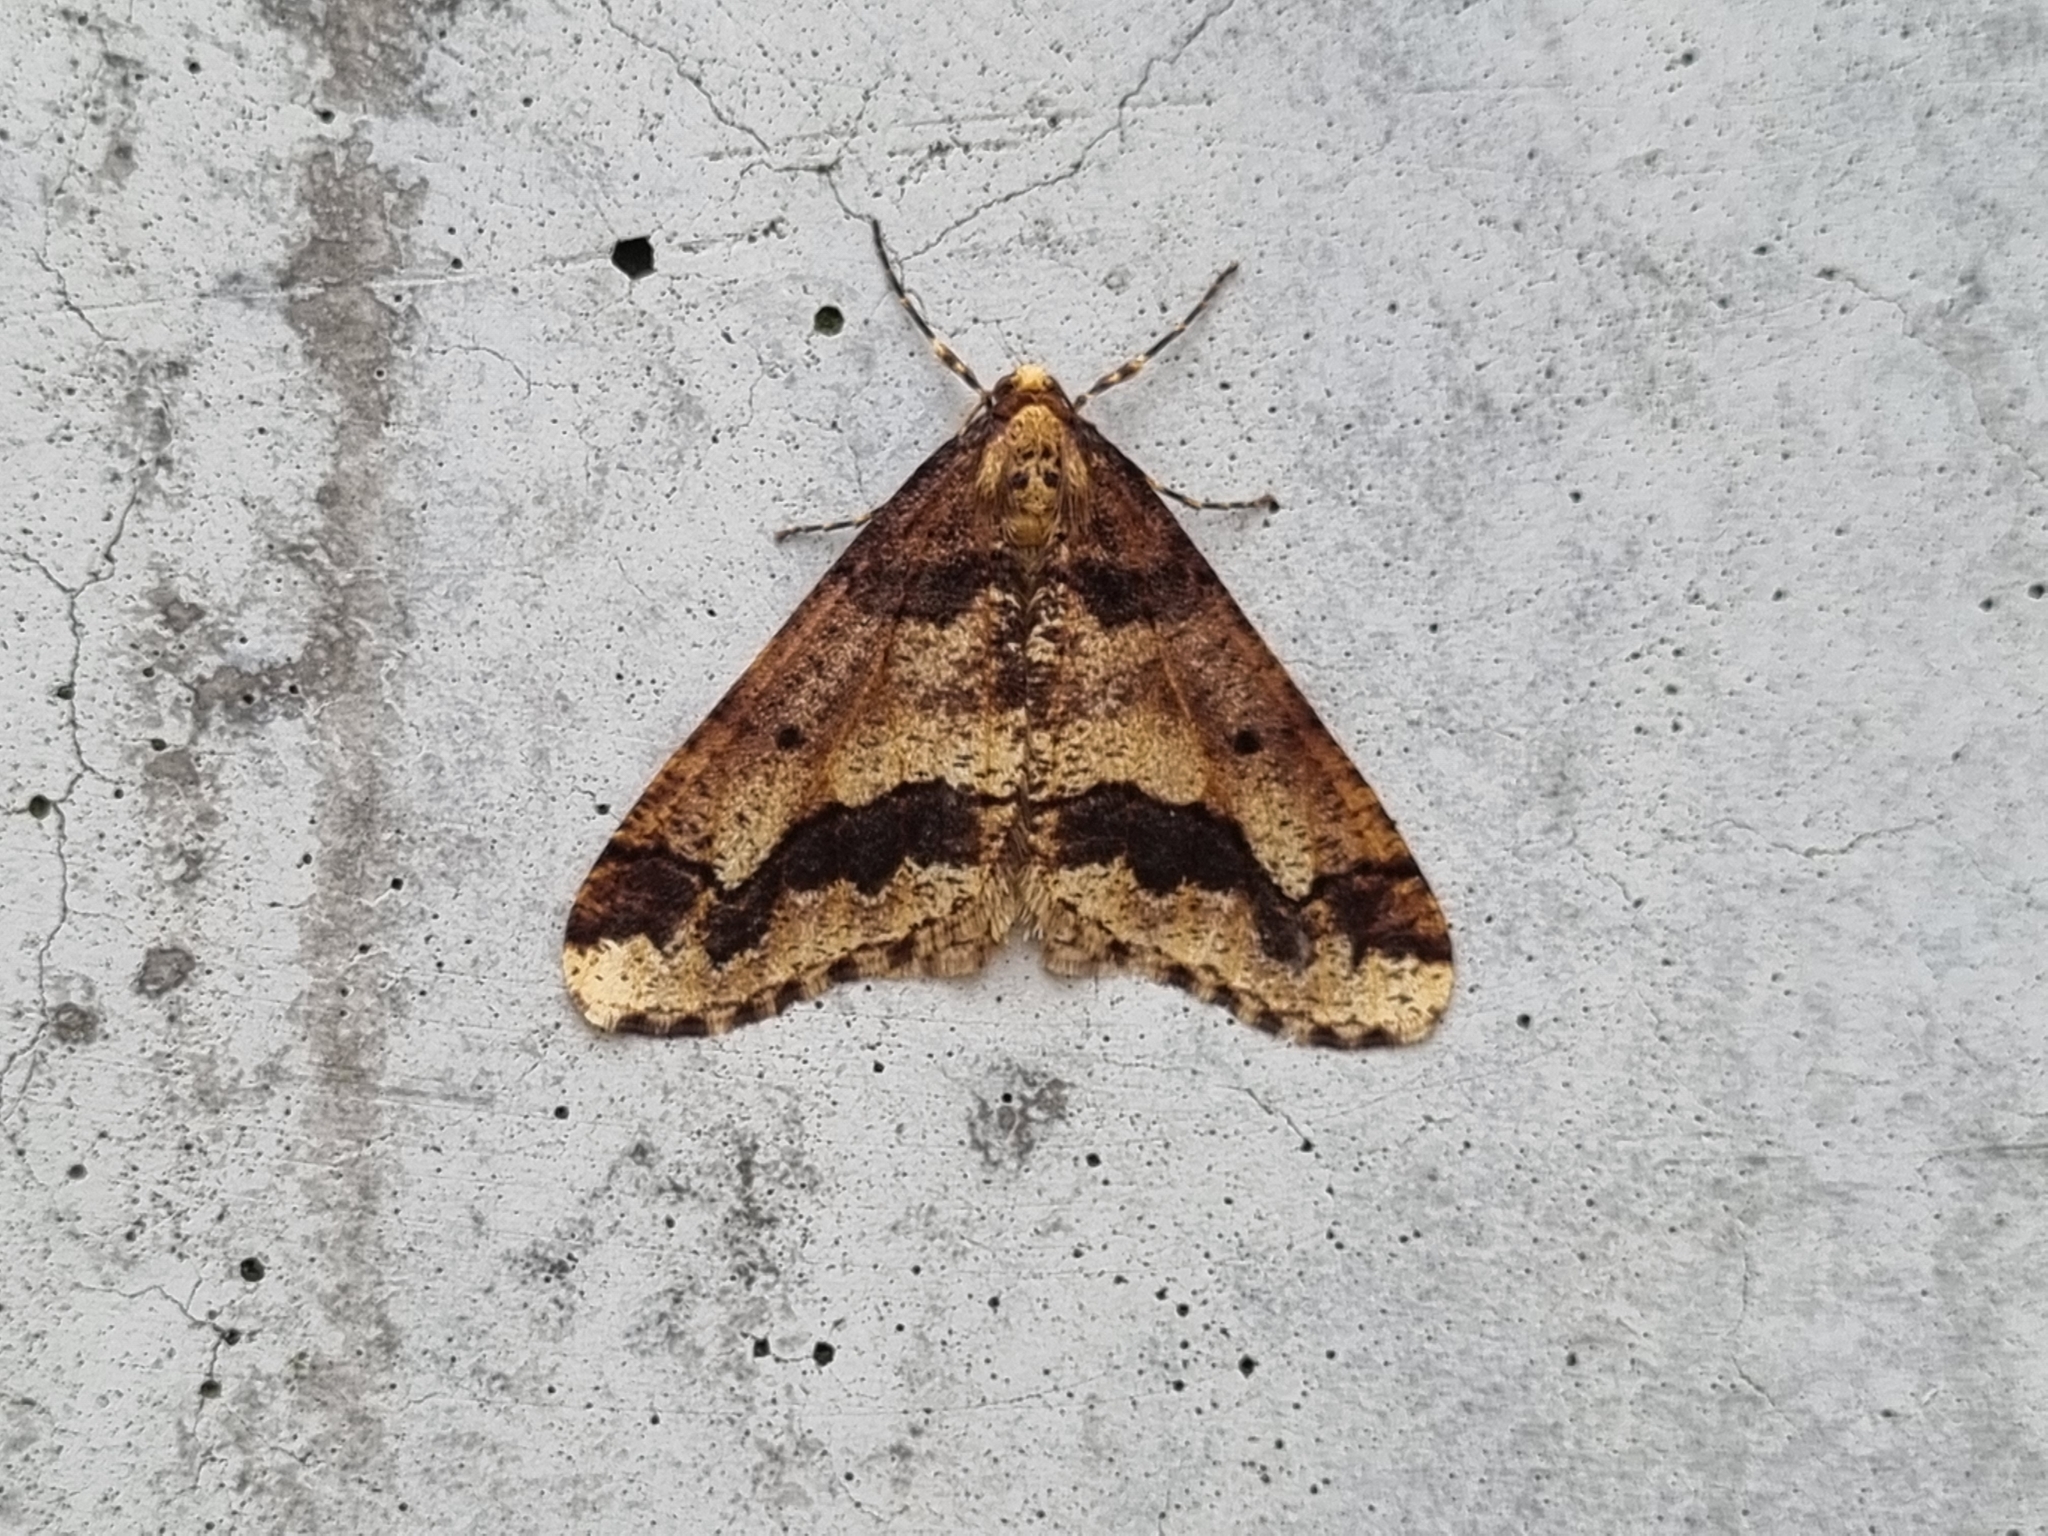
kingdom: Animalia
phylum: Arthropoda
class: Insecta
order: Lepidoptera
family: Geometridae
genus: Erannis
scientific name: Erannis defoliaria
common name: Mottled umber
